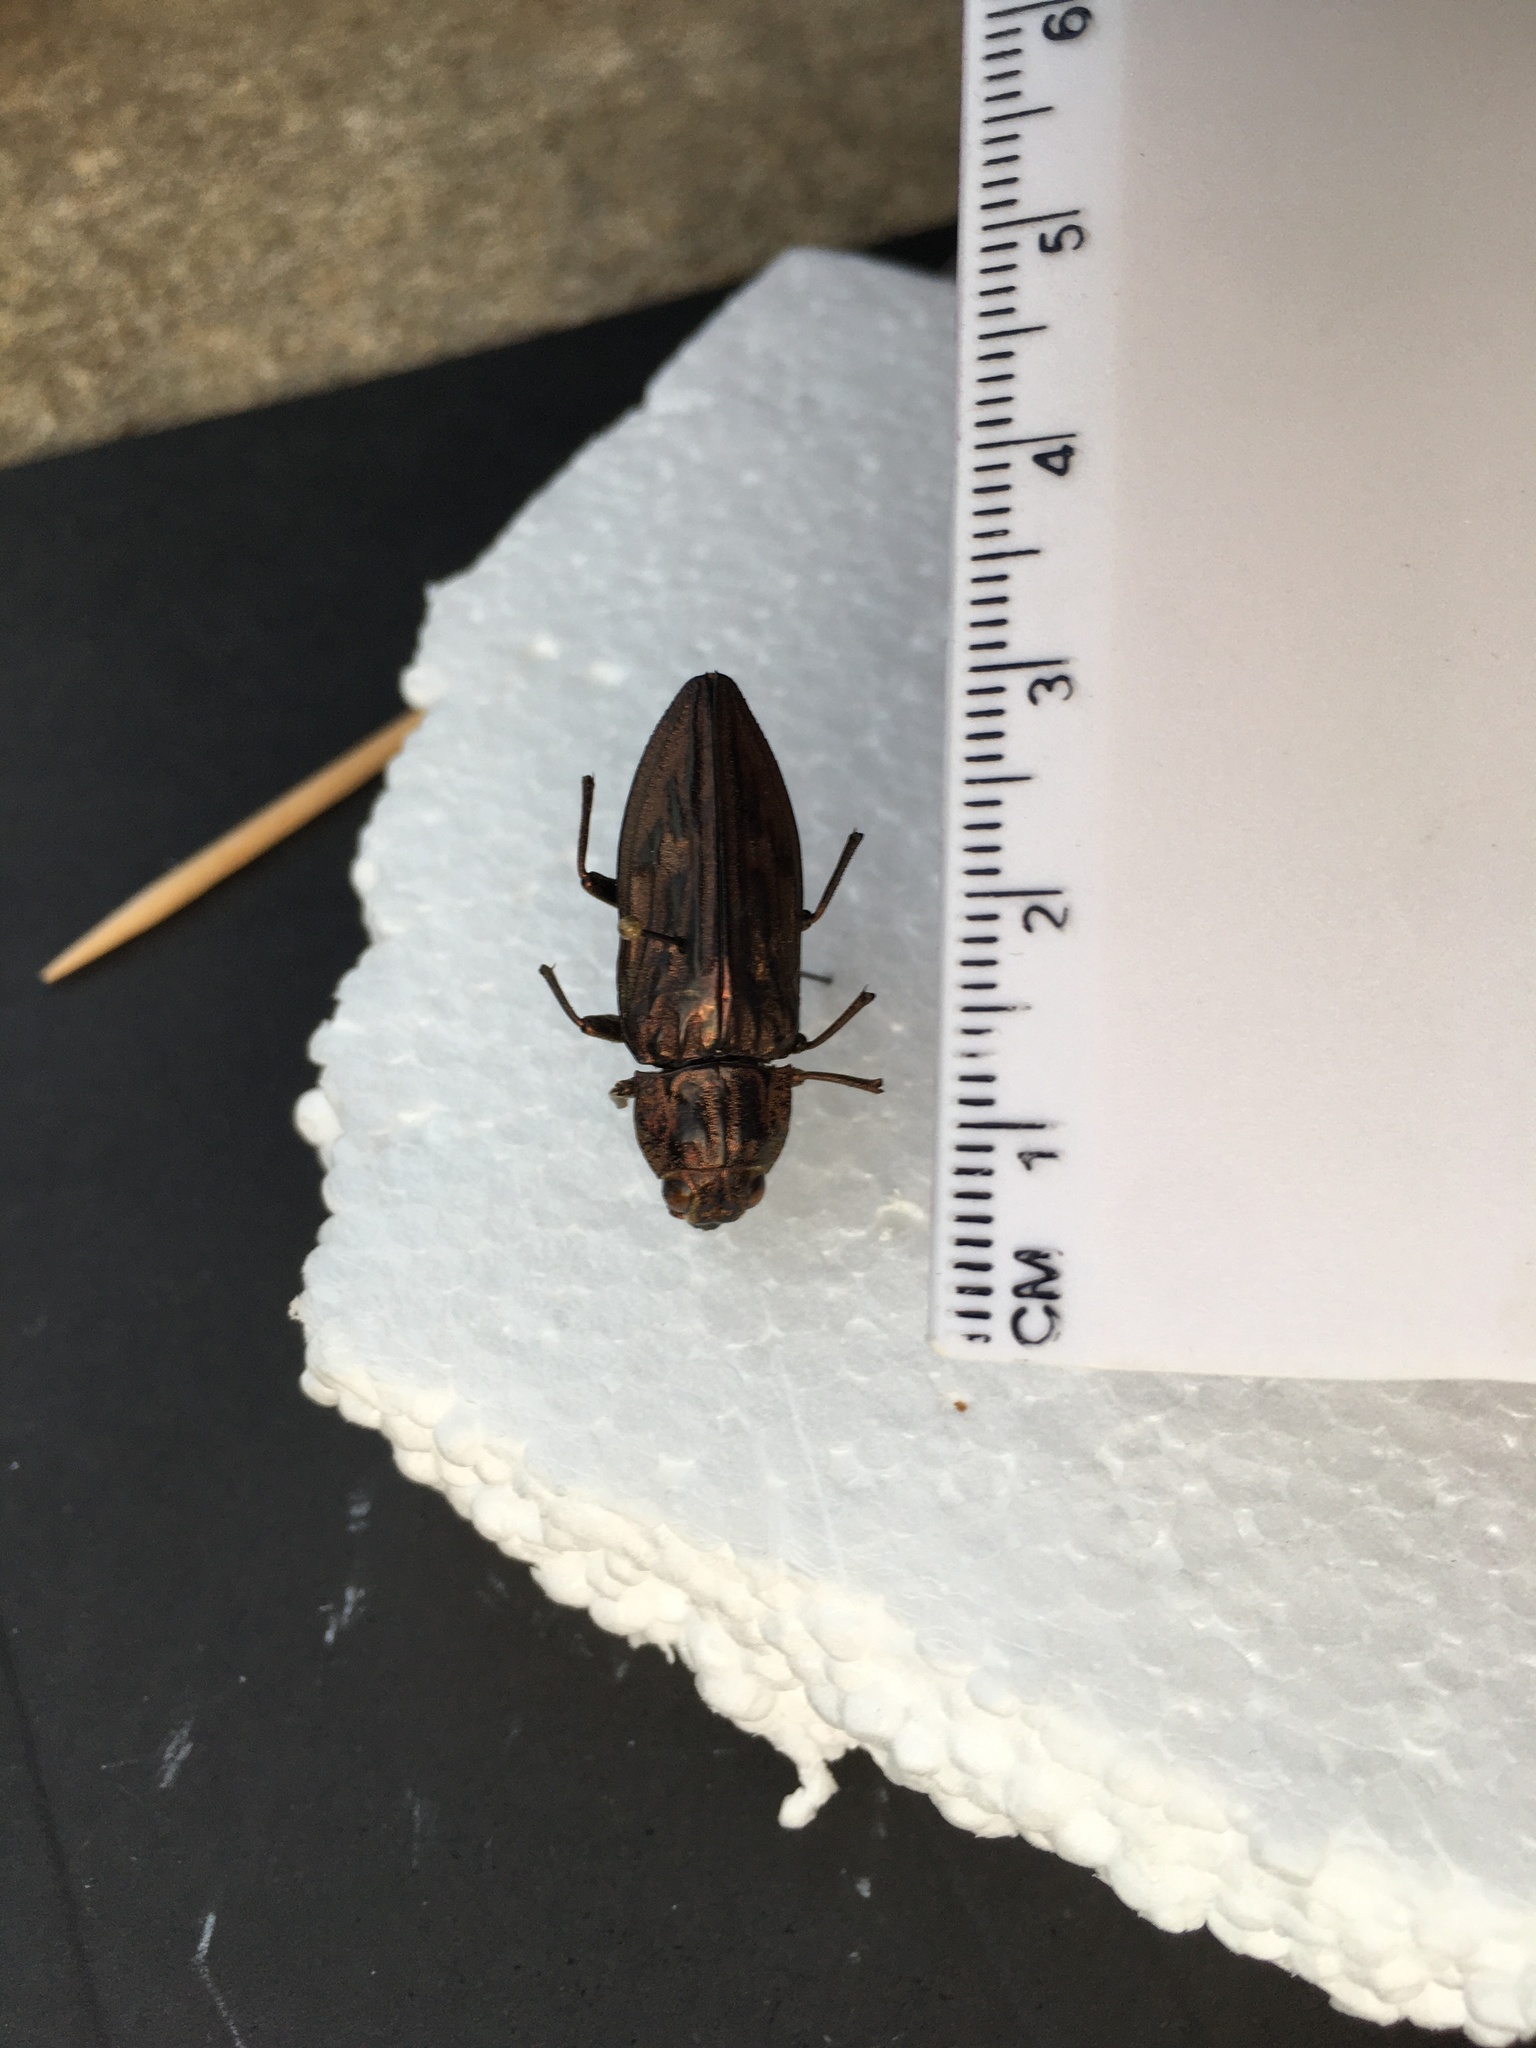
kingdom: Animalia
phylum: Arthropoda
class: Insecta
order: Coleoptera
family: Buprestidae
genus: Chalcophora
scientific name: Chalcophora virginiensis
